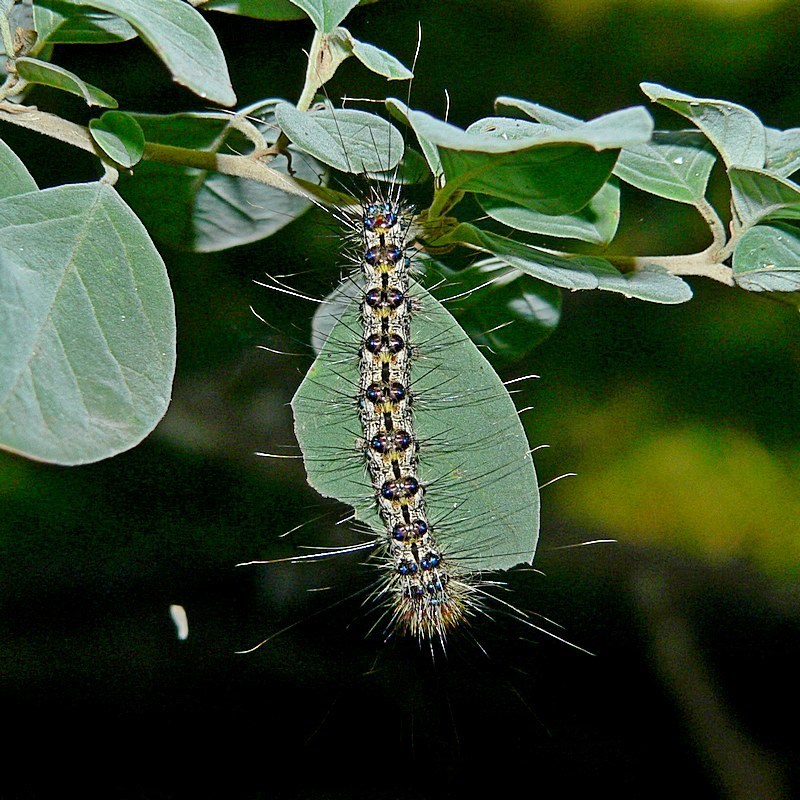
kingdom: Animalia
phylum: Arthropoda
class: Insecta
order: Lepidoptera
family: Notodontidae
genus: Aglaosoma
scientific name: Aglaosoma variegata
